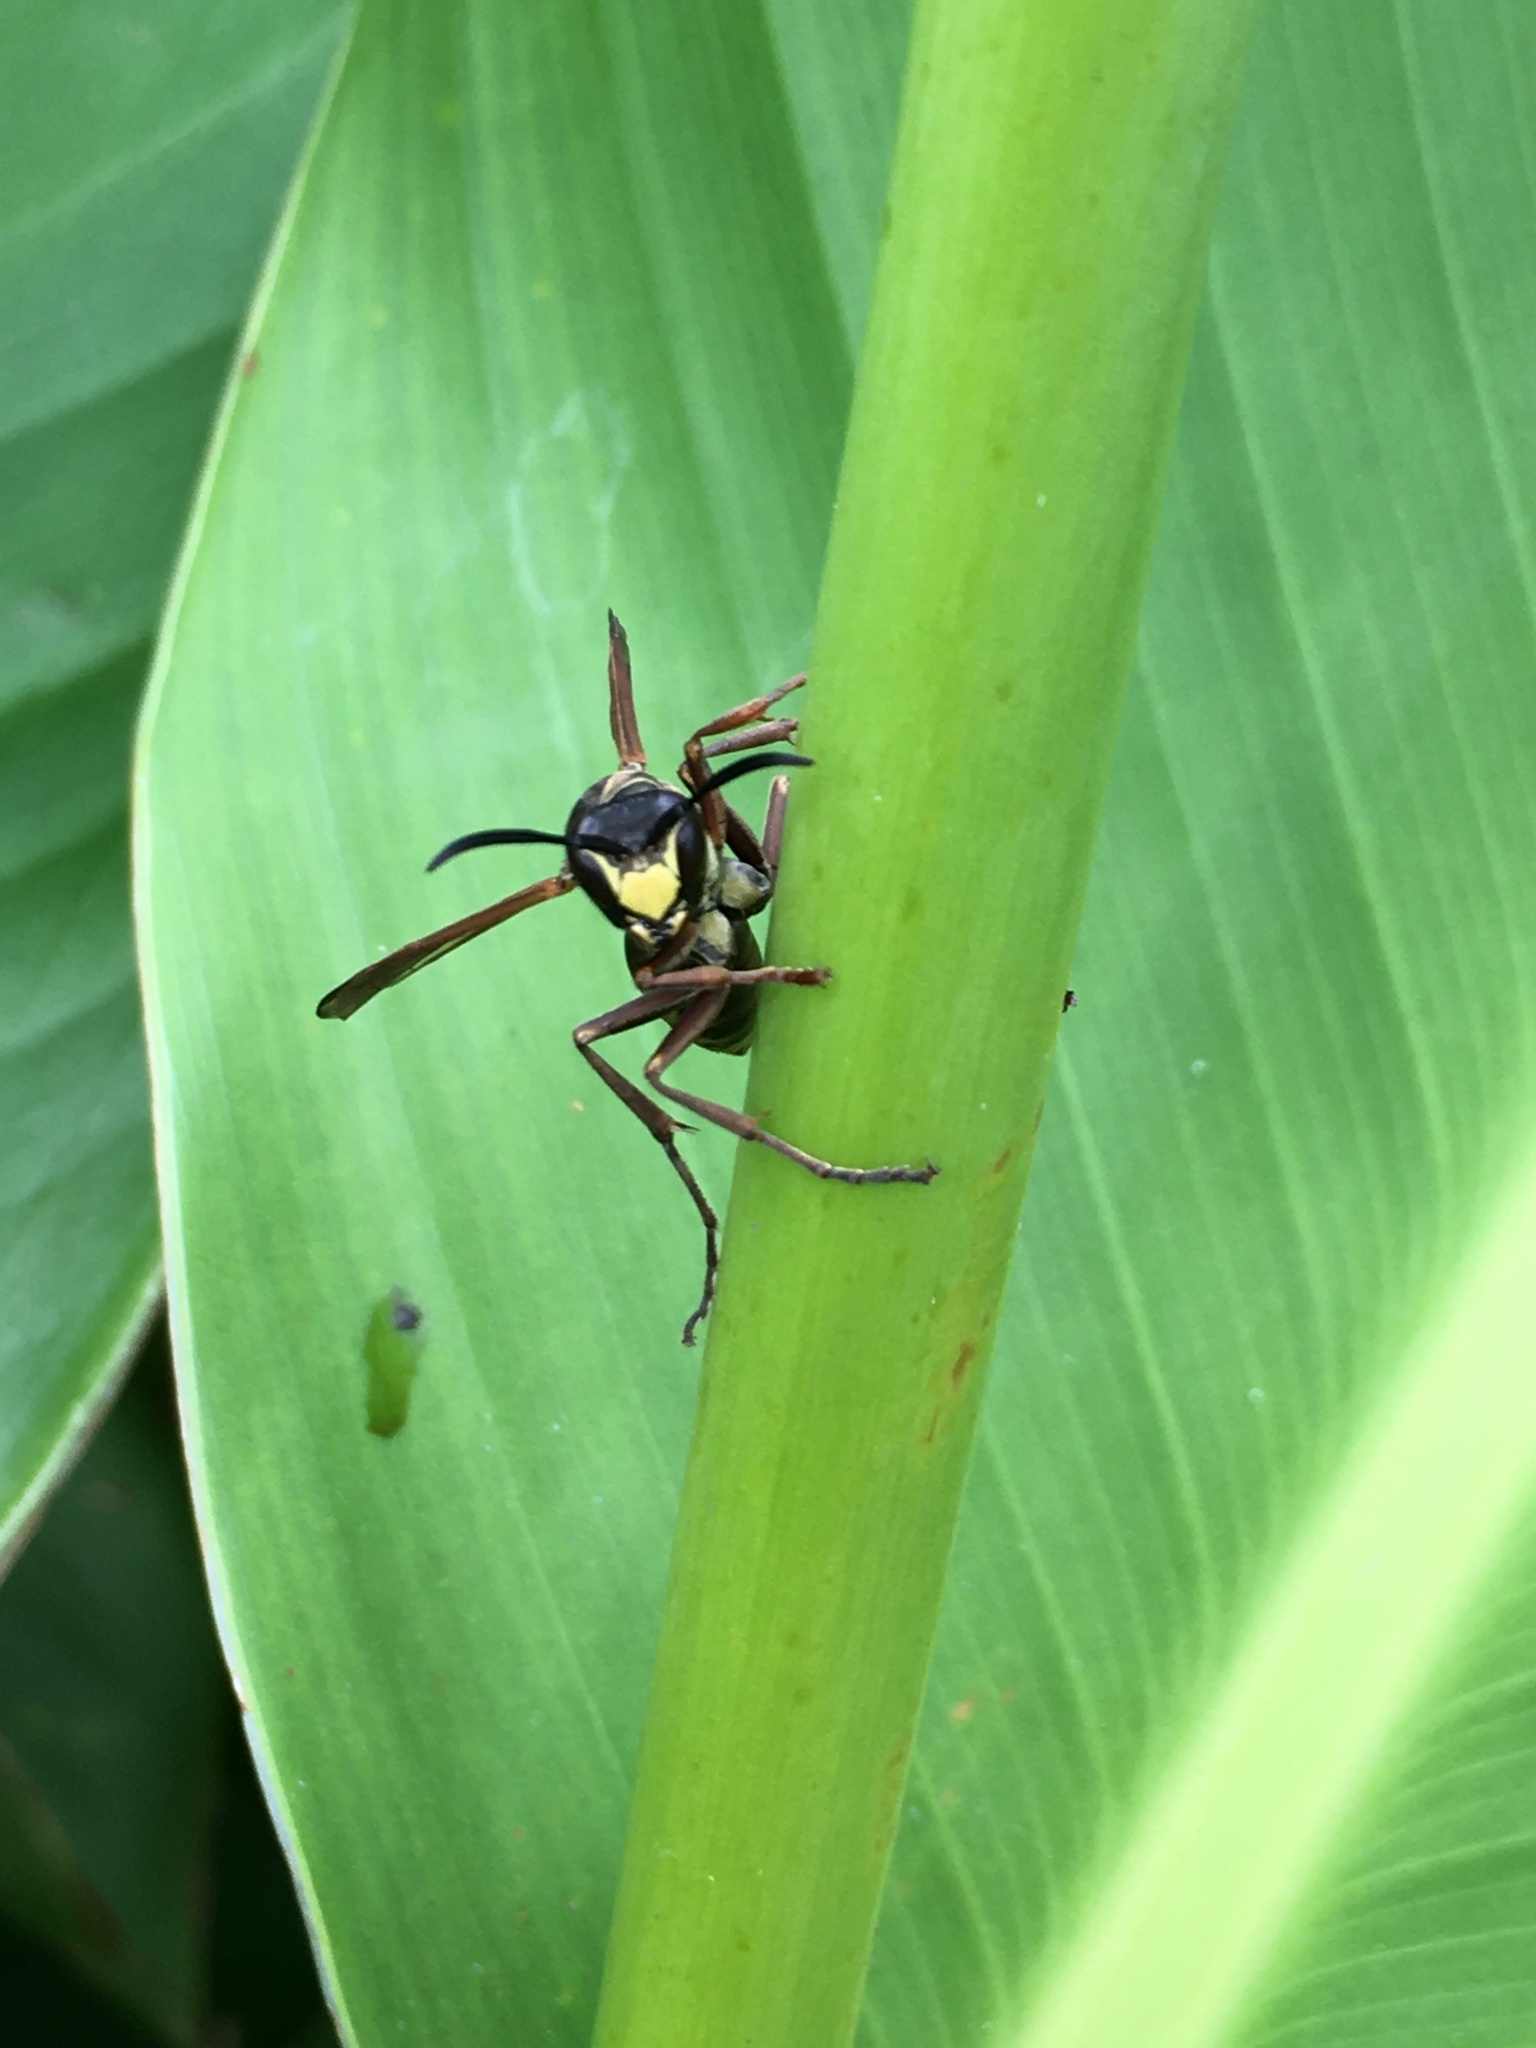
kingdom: Animalia
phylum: Arthropoda
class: Insecta
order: Hymenoptera
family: Eumenidae
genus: Polistes
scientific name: Polistes cinerascens
